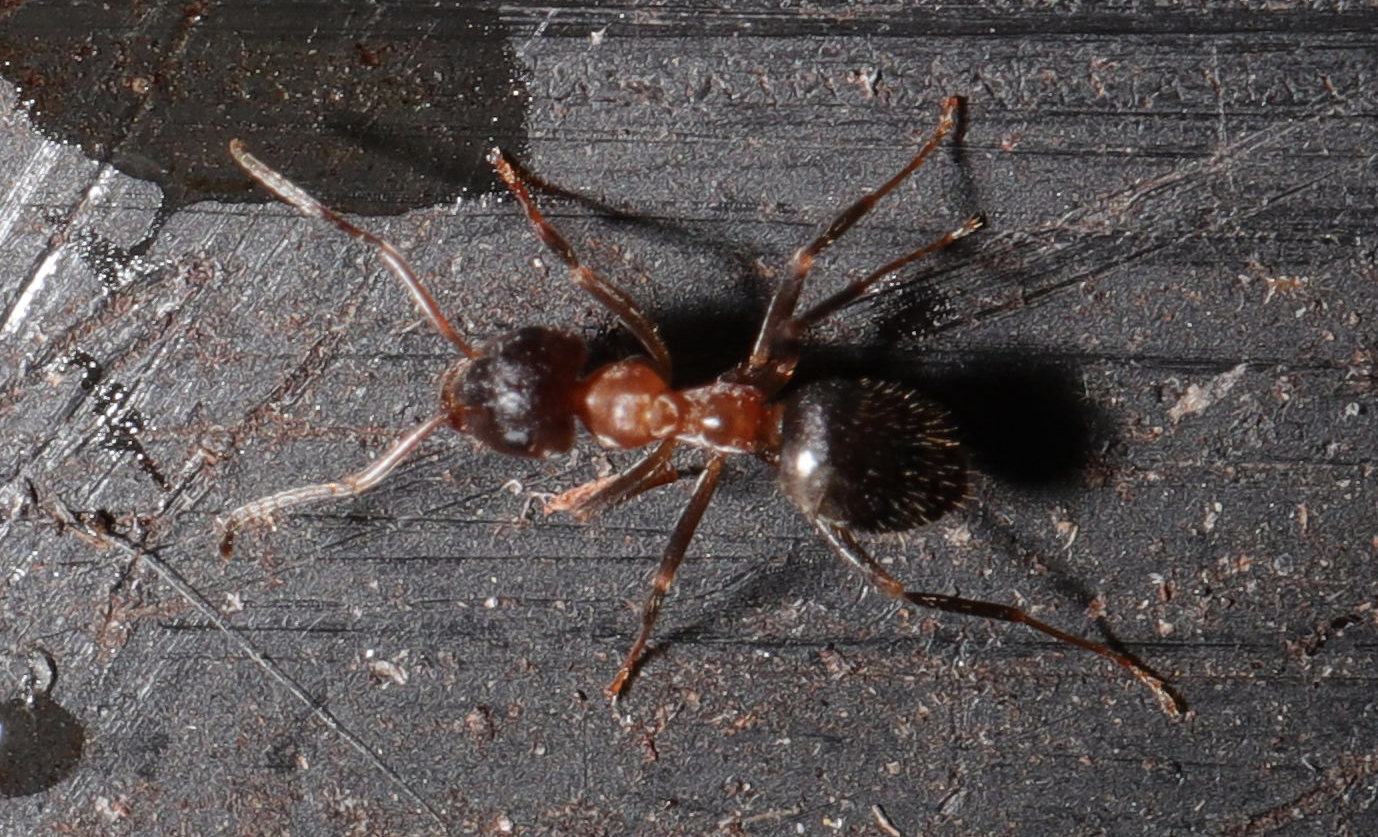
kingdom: Animalia
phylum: Arthropoda
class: Insecta
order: Hymenoptera
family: Formicidae
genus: Lasius
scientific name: Lasius emarginatus
